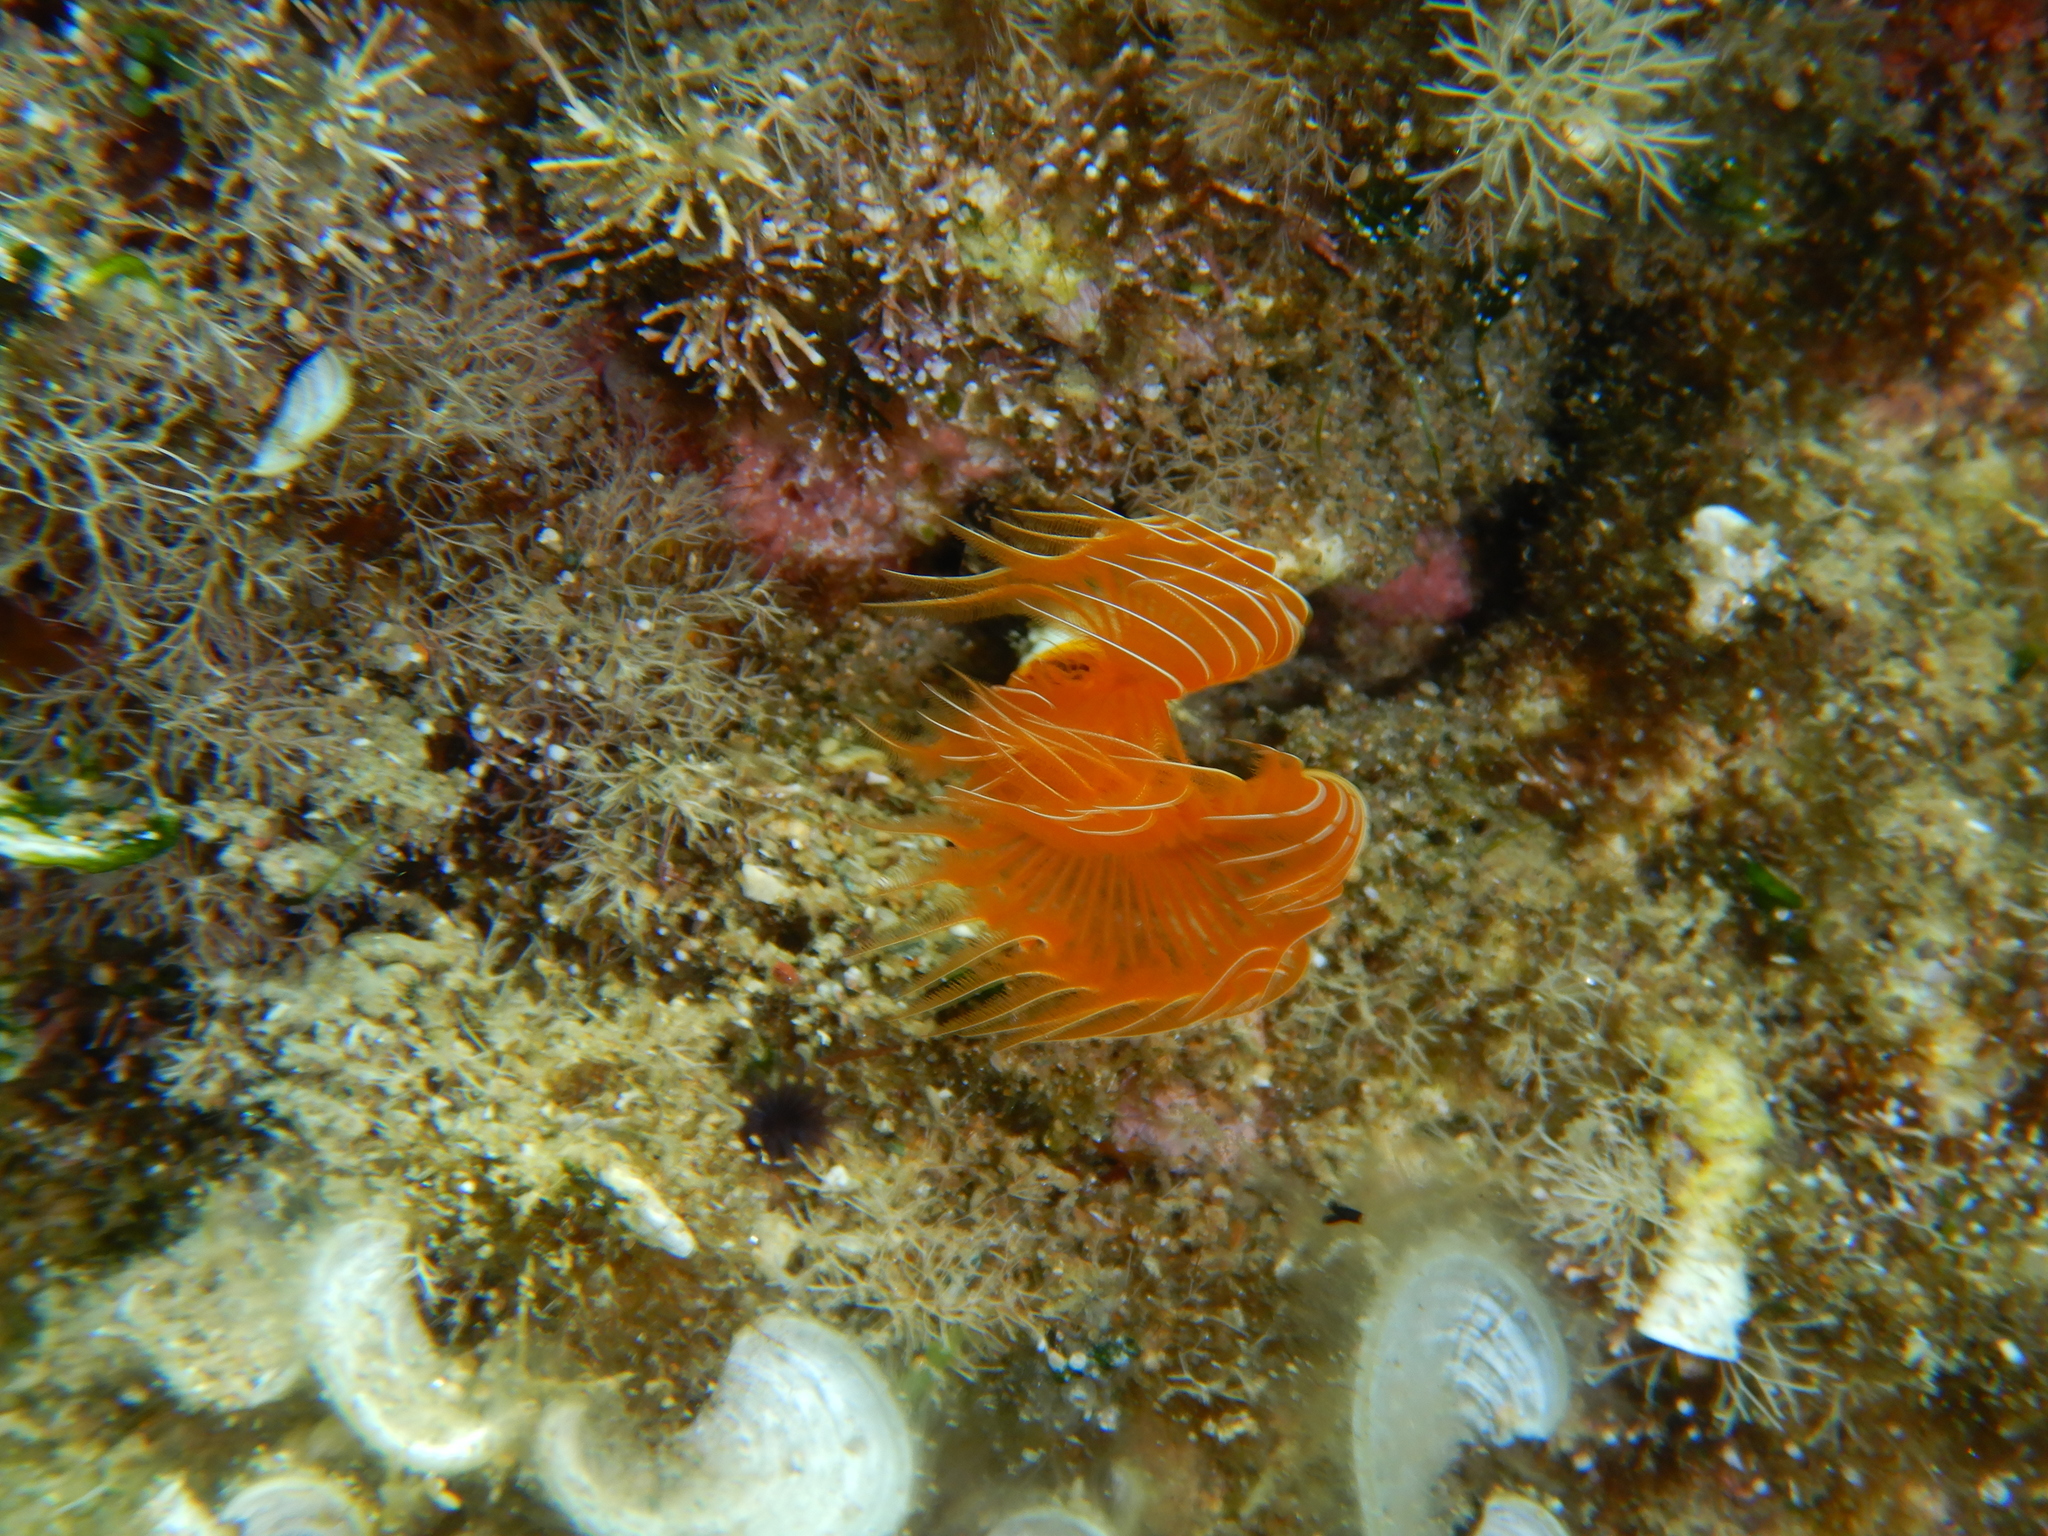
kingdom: Animalia
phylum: Annelida
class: Polychaeta
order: Sabellida
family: Serpulidae
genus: Protula
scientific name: Protula tubularia
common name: Red-spotted horseshoe
